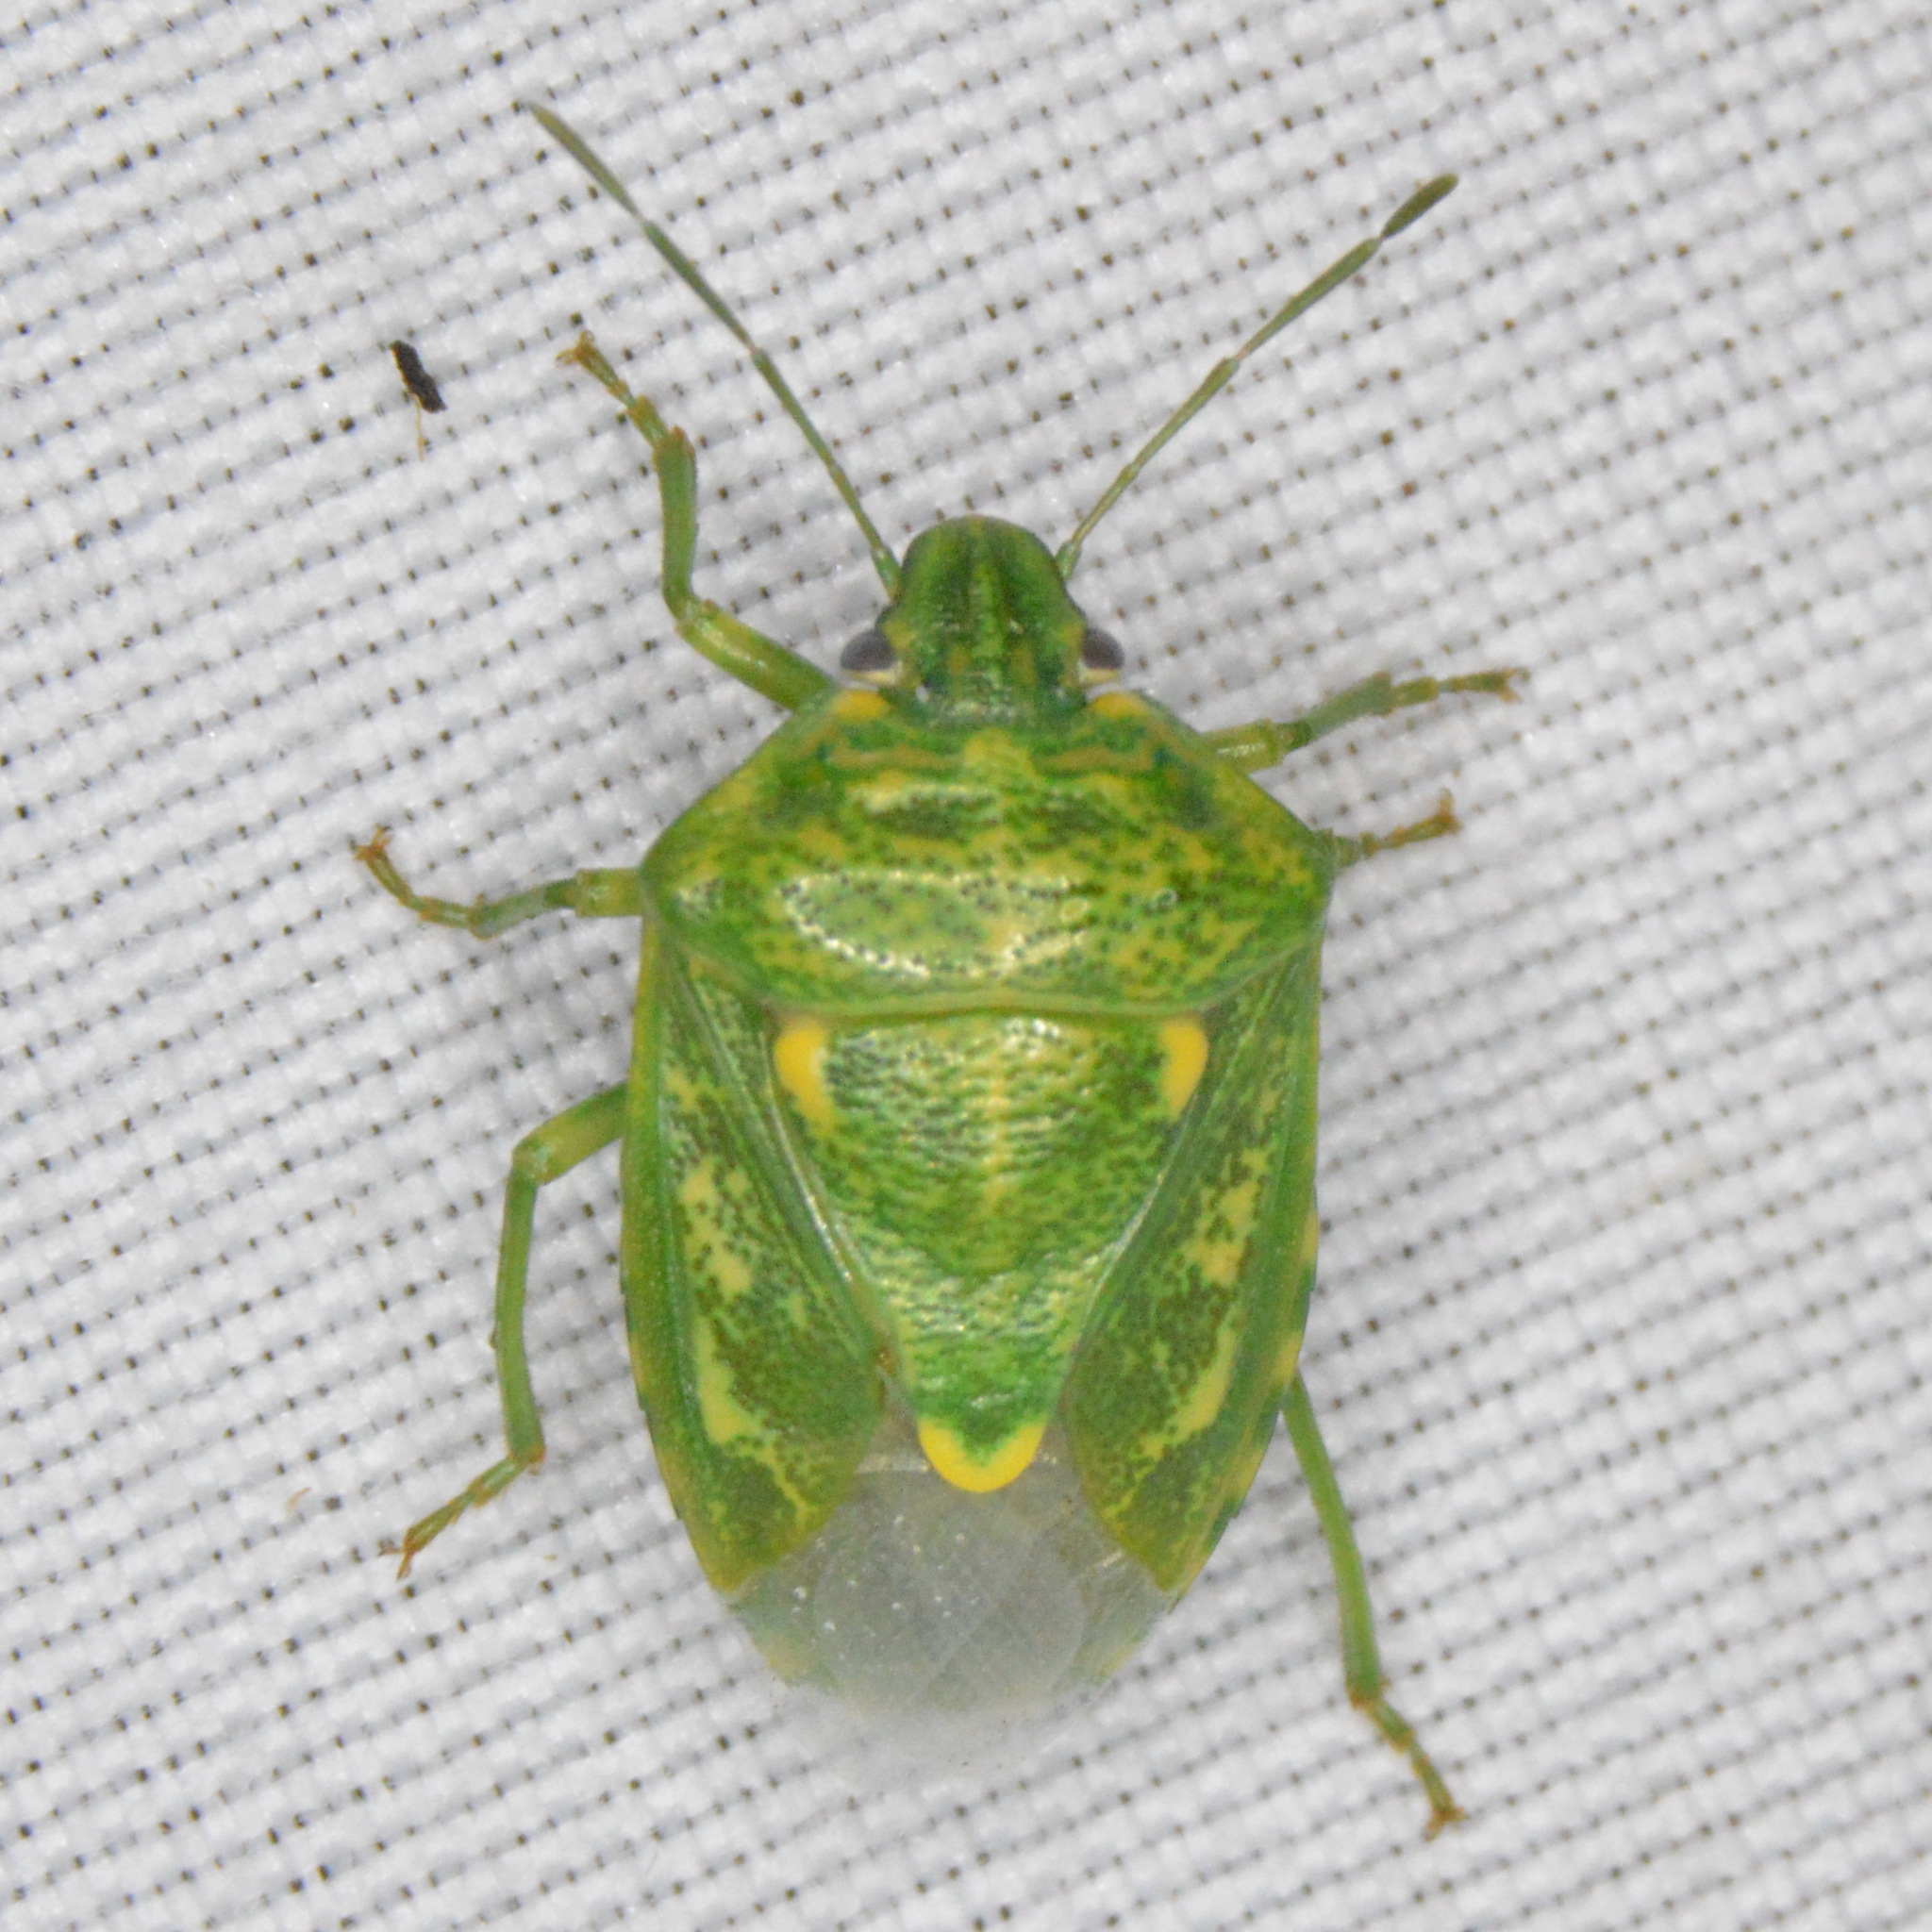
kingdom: Animalia
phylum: Arthropoda
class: Insecta
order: Hemiptera
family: Pentatomidae
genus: Banasa
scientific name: Banasa euchlora
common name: Cedar berry bug
